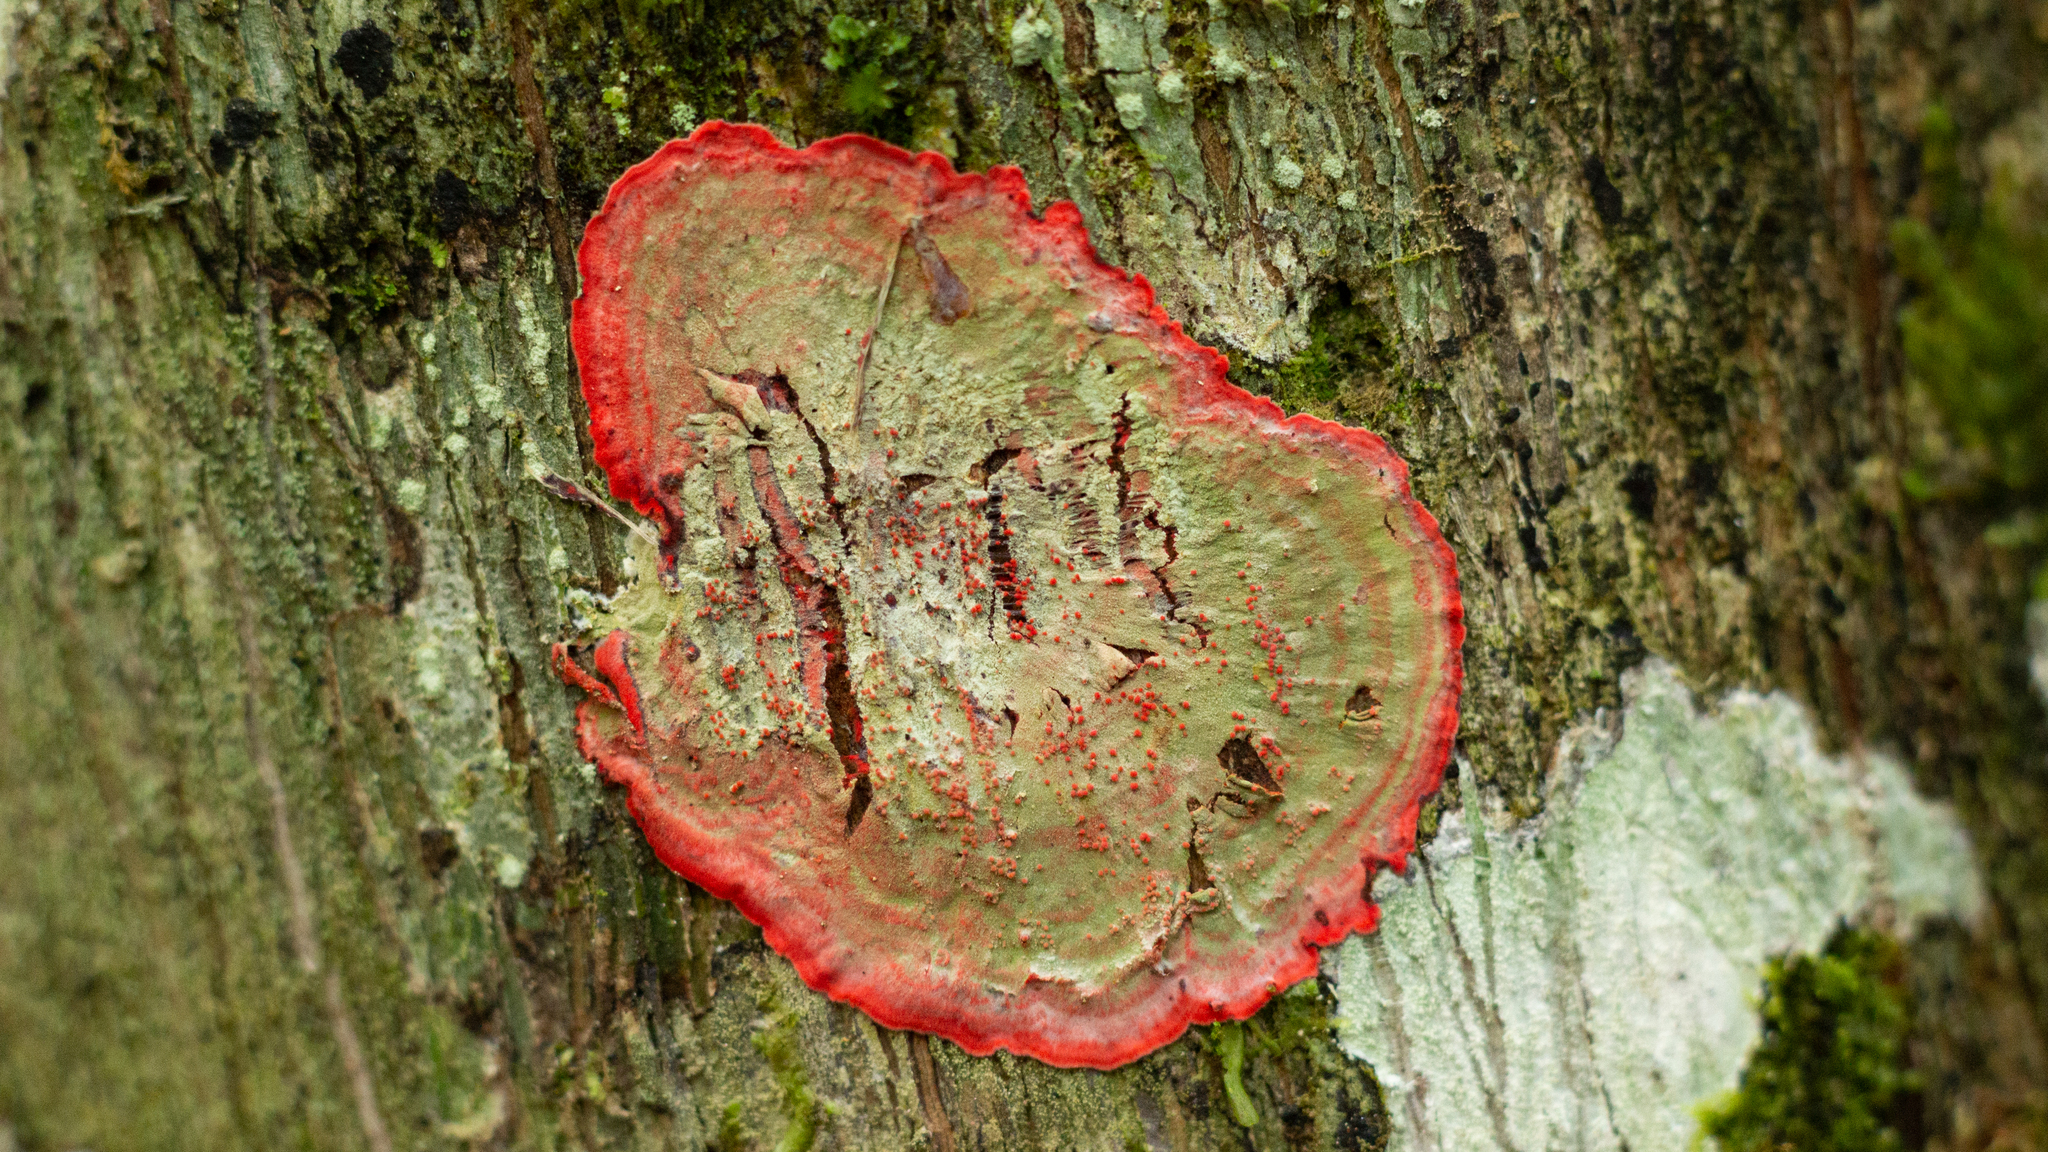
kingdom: Fungi
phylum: Ascomycota
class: Arthoniomycetes
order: Arthoniales
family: Arthoniaceae
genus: Herpothallon
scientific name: Herpothallon rubrocinctum
